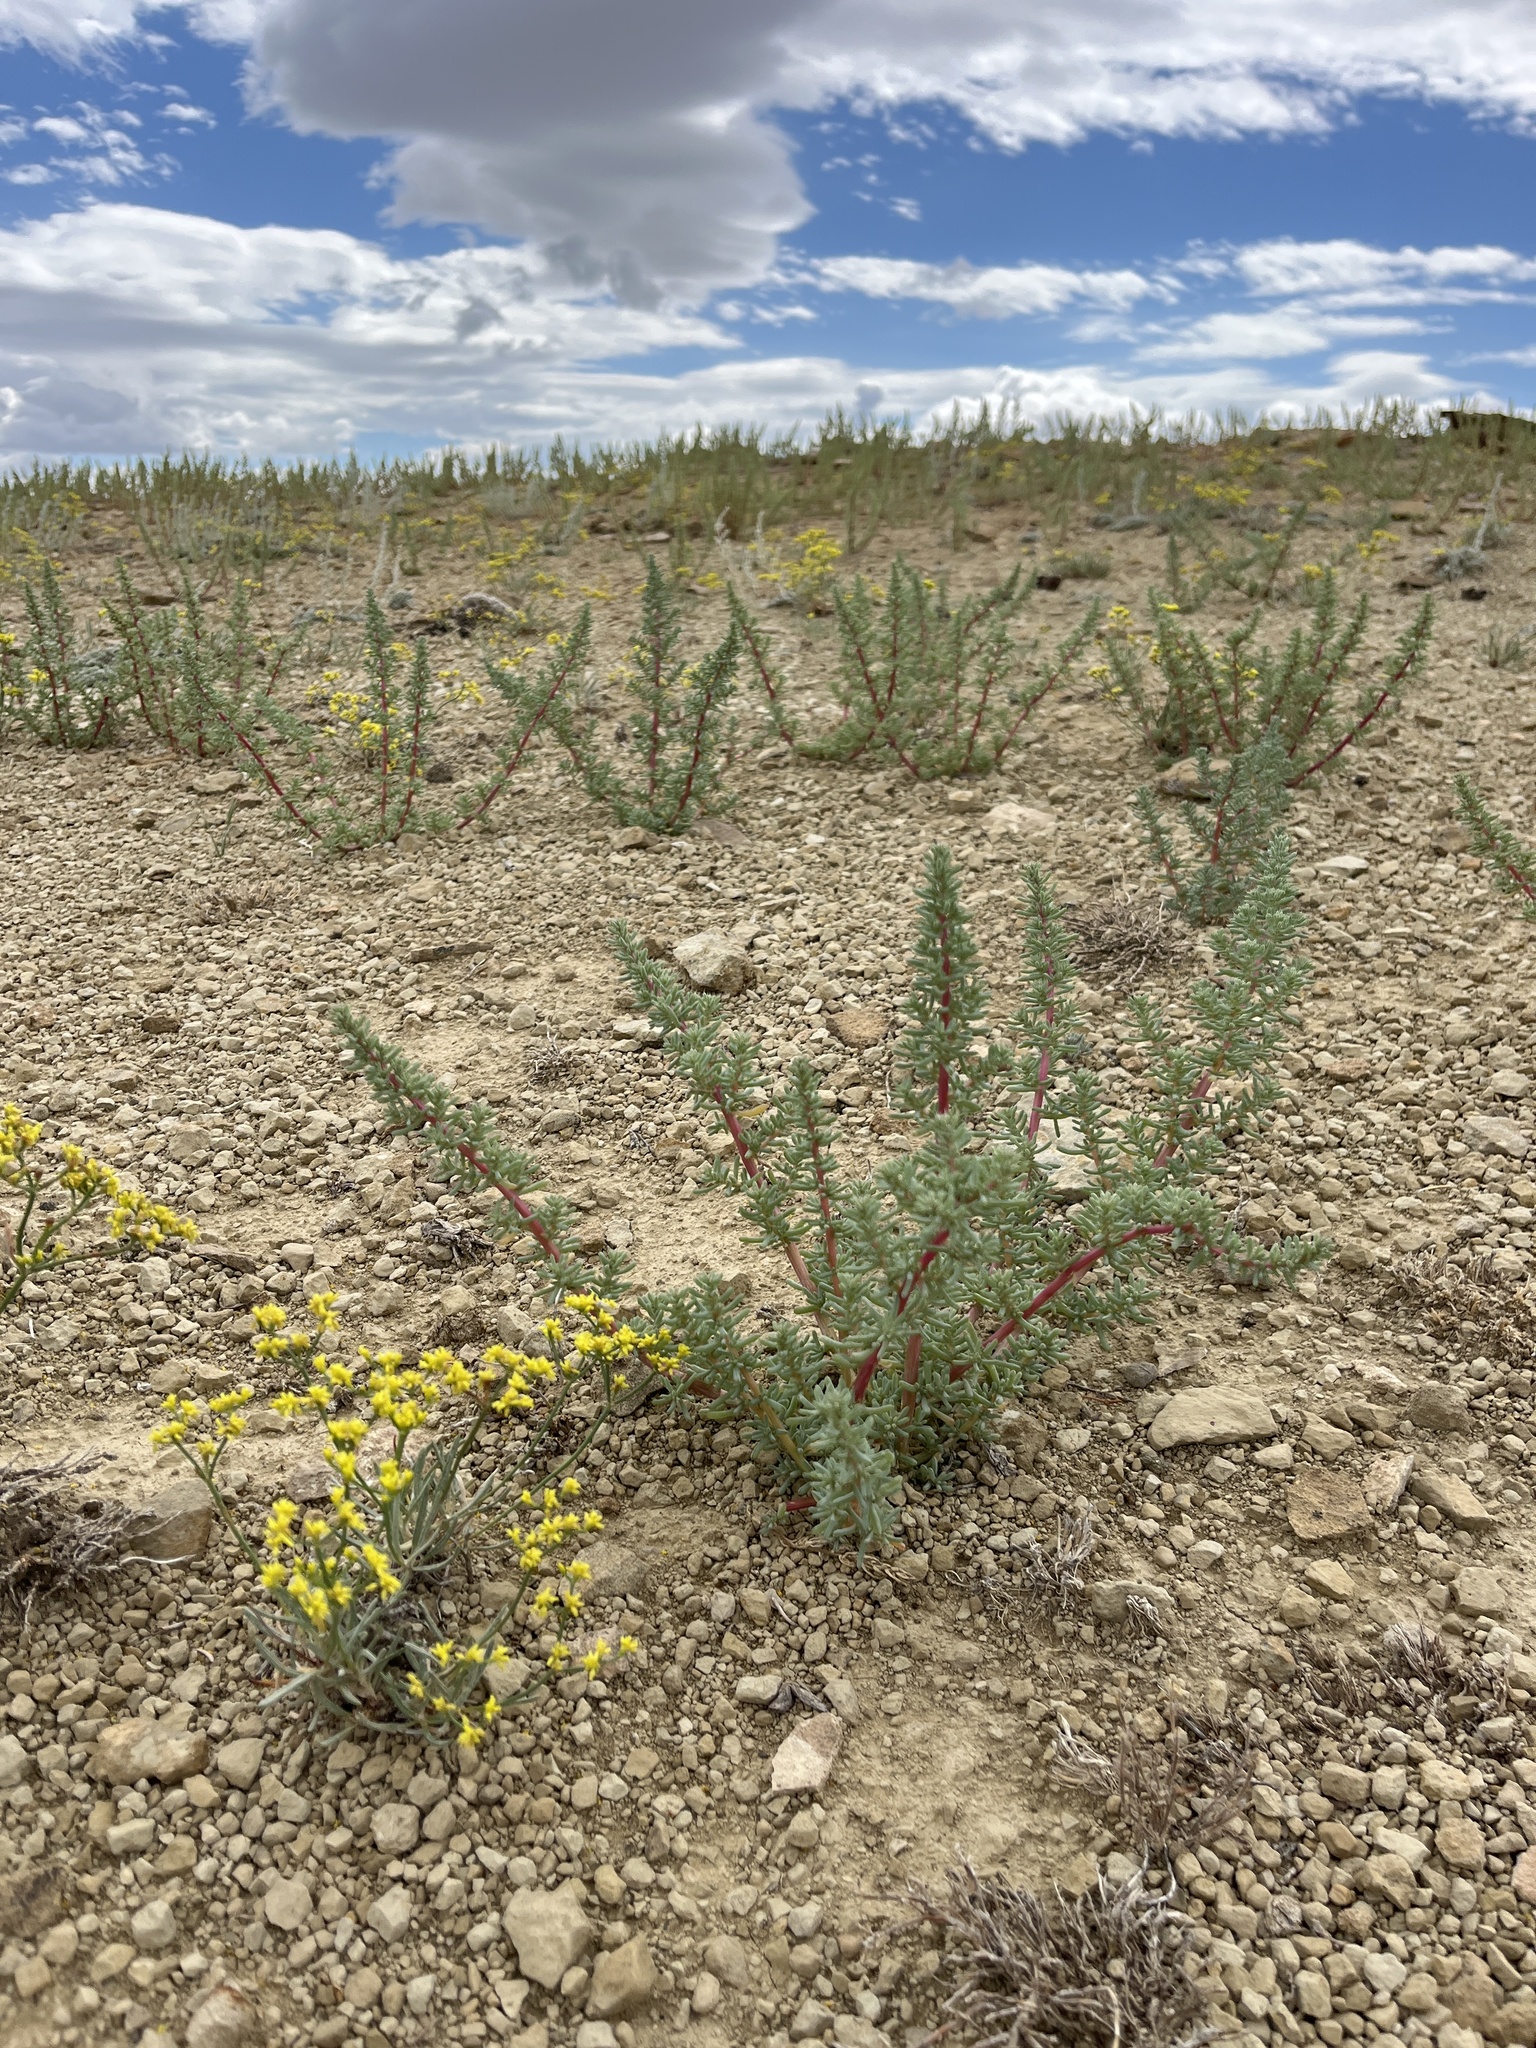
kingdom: Plantae
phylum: Tracheophyta
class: Magnoliopsida
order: Caryophyllales
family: Amaranthaceae
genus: Halogeton
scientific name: Halogeton glomeratus
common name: Saltlover
